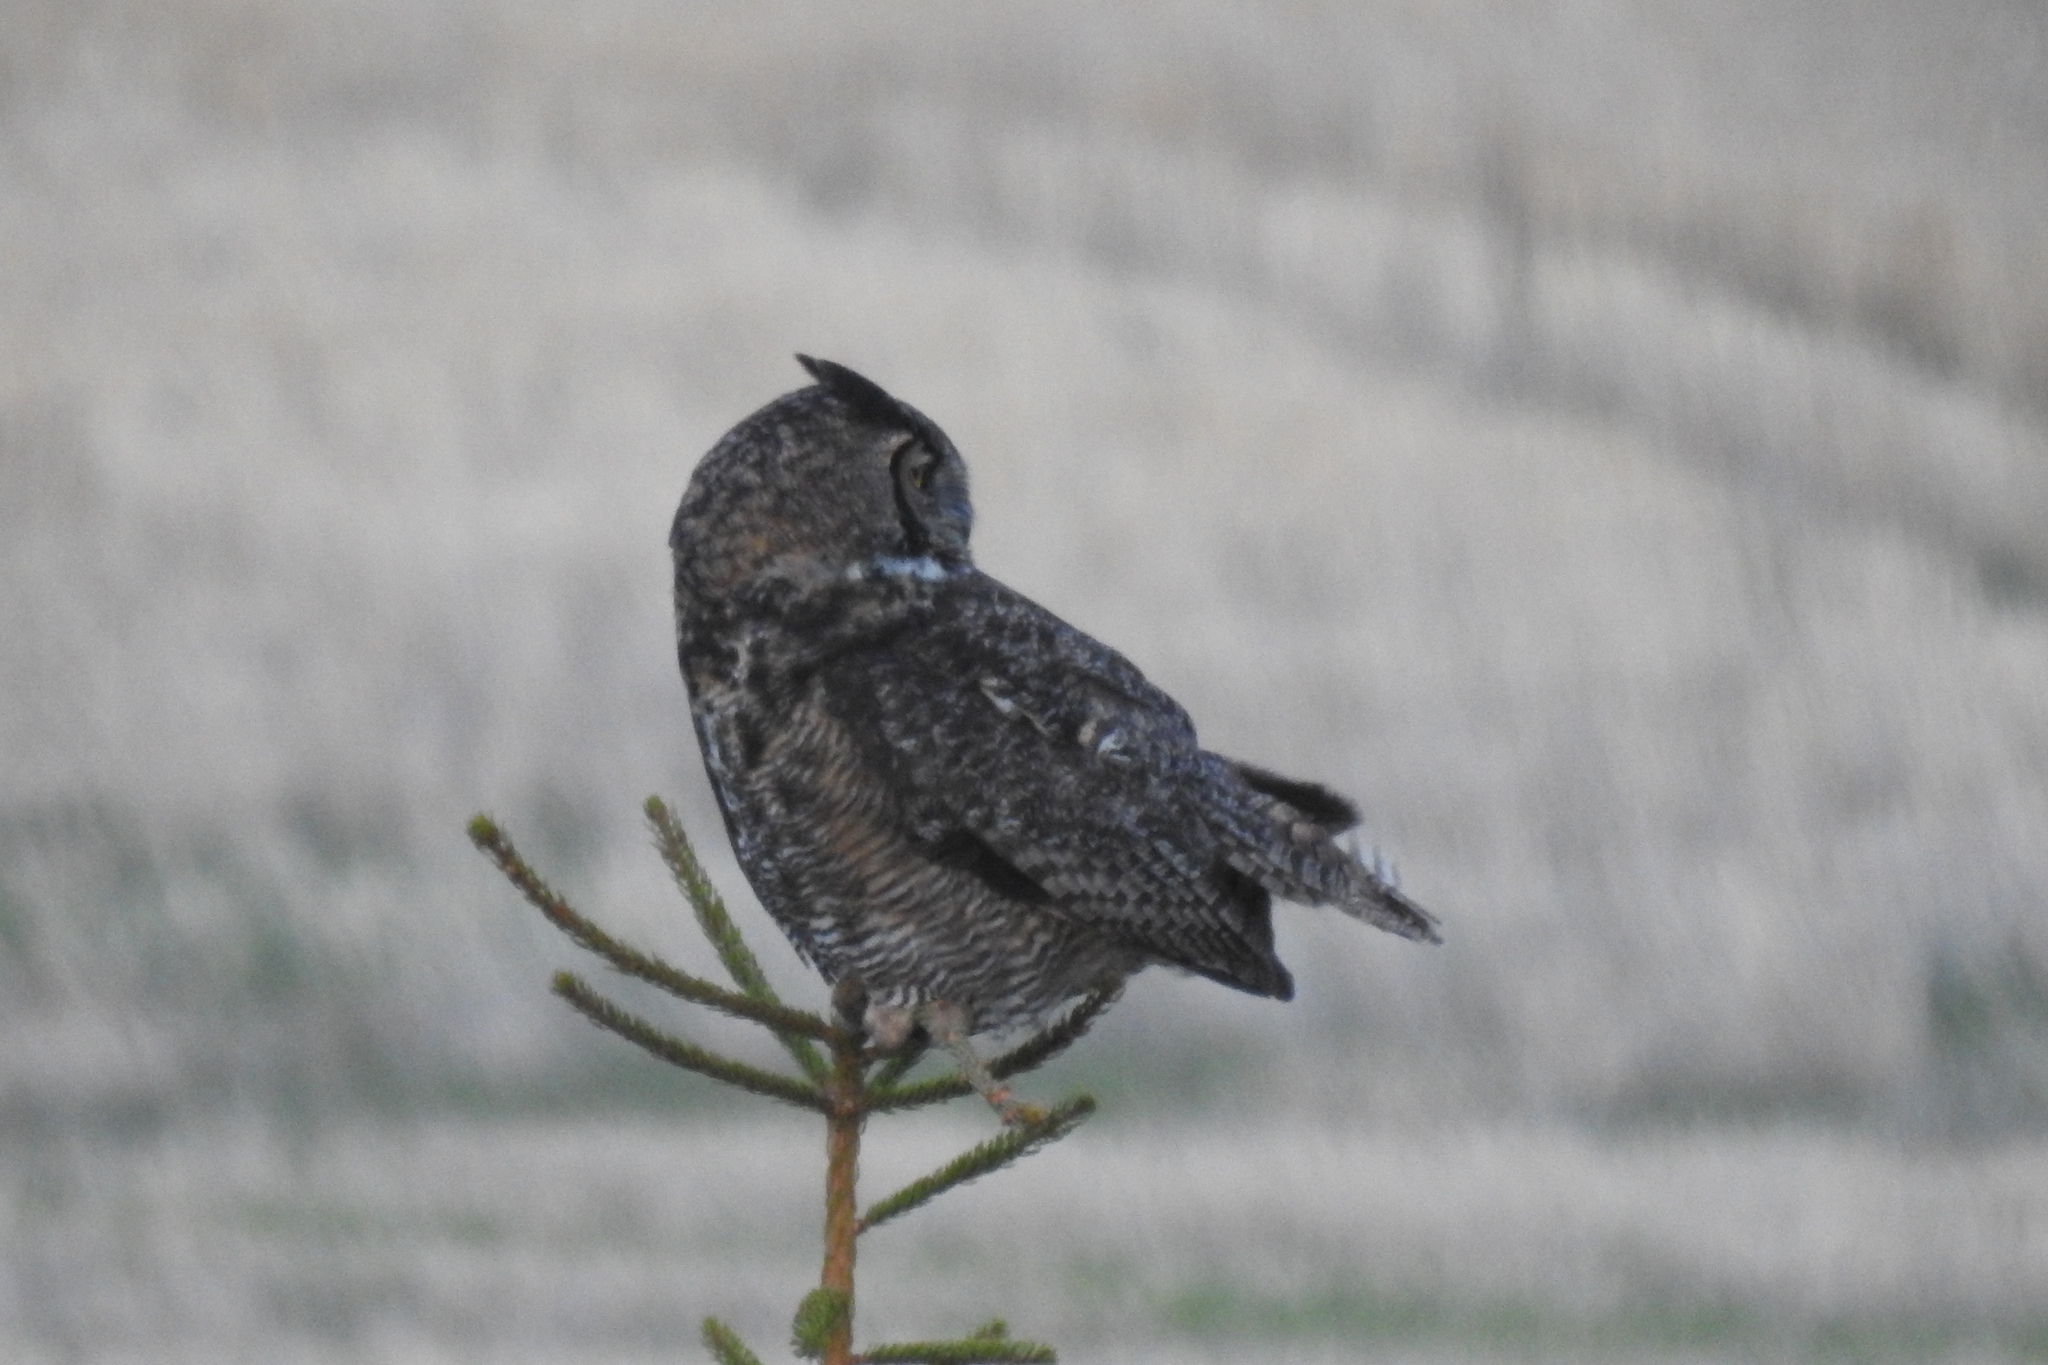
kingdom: Animalia
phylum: Chordata
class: Aves
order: Strigiformes
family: Strigidae
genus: Bubo
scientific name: Bubo virginianus
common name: Great horned owl
